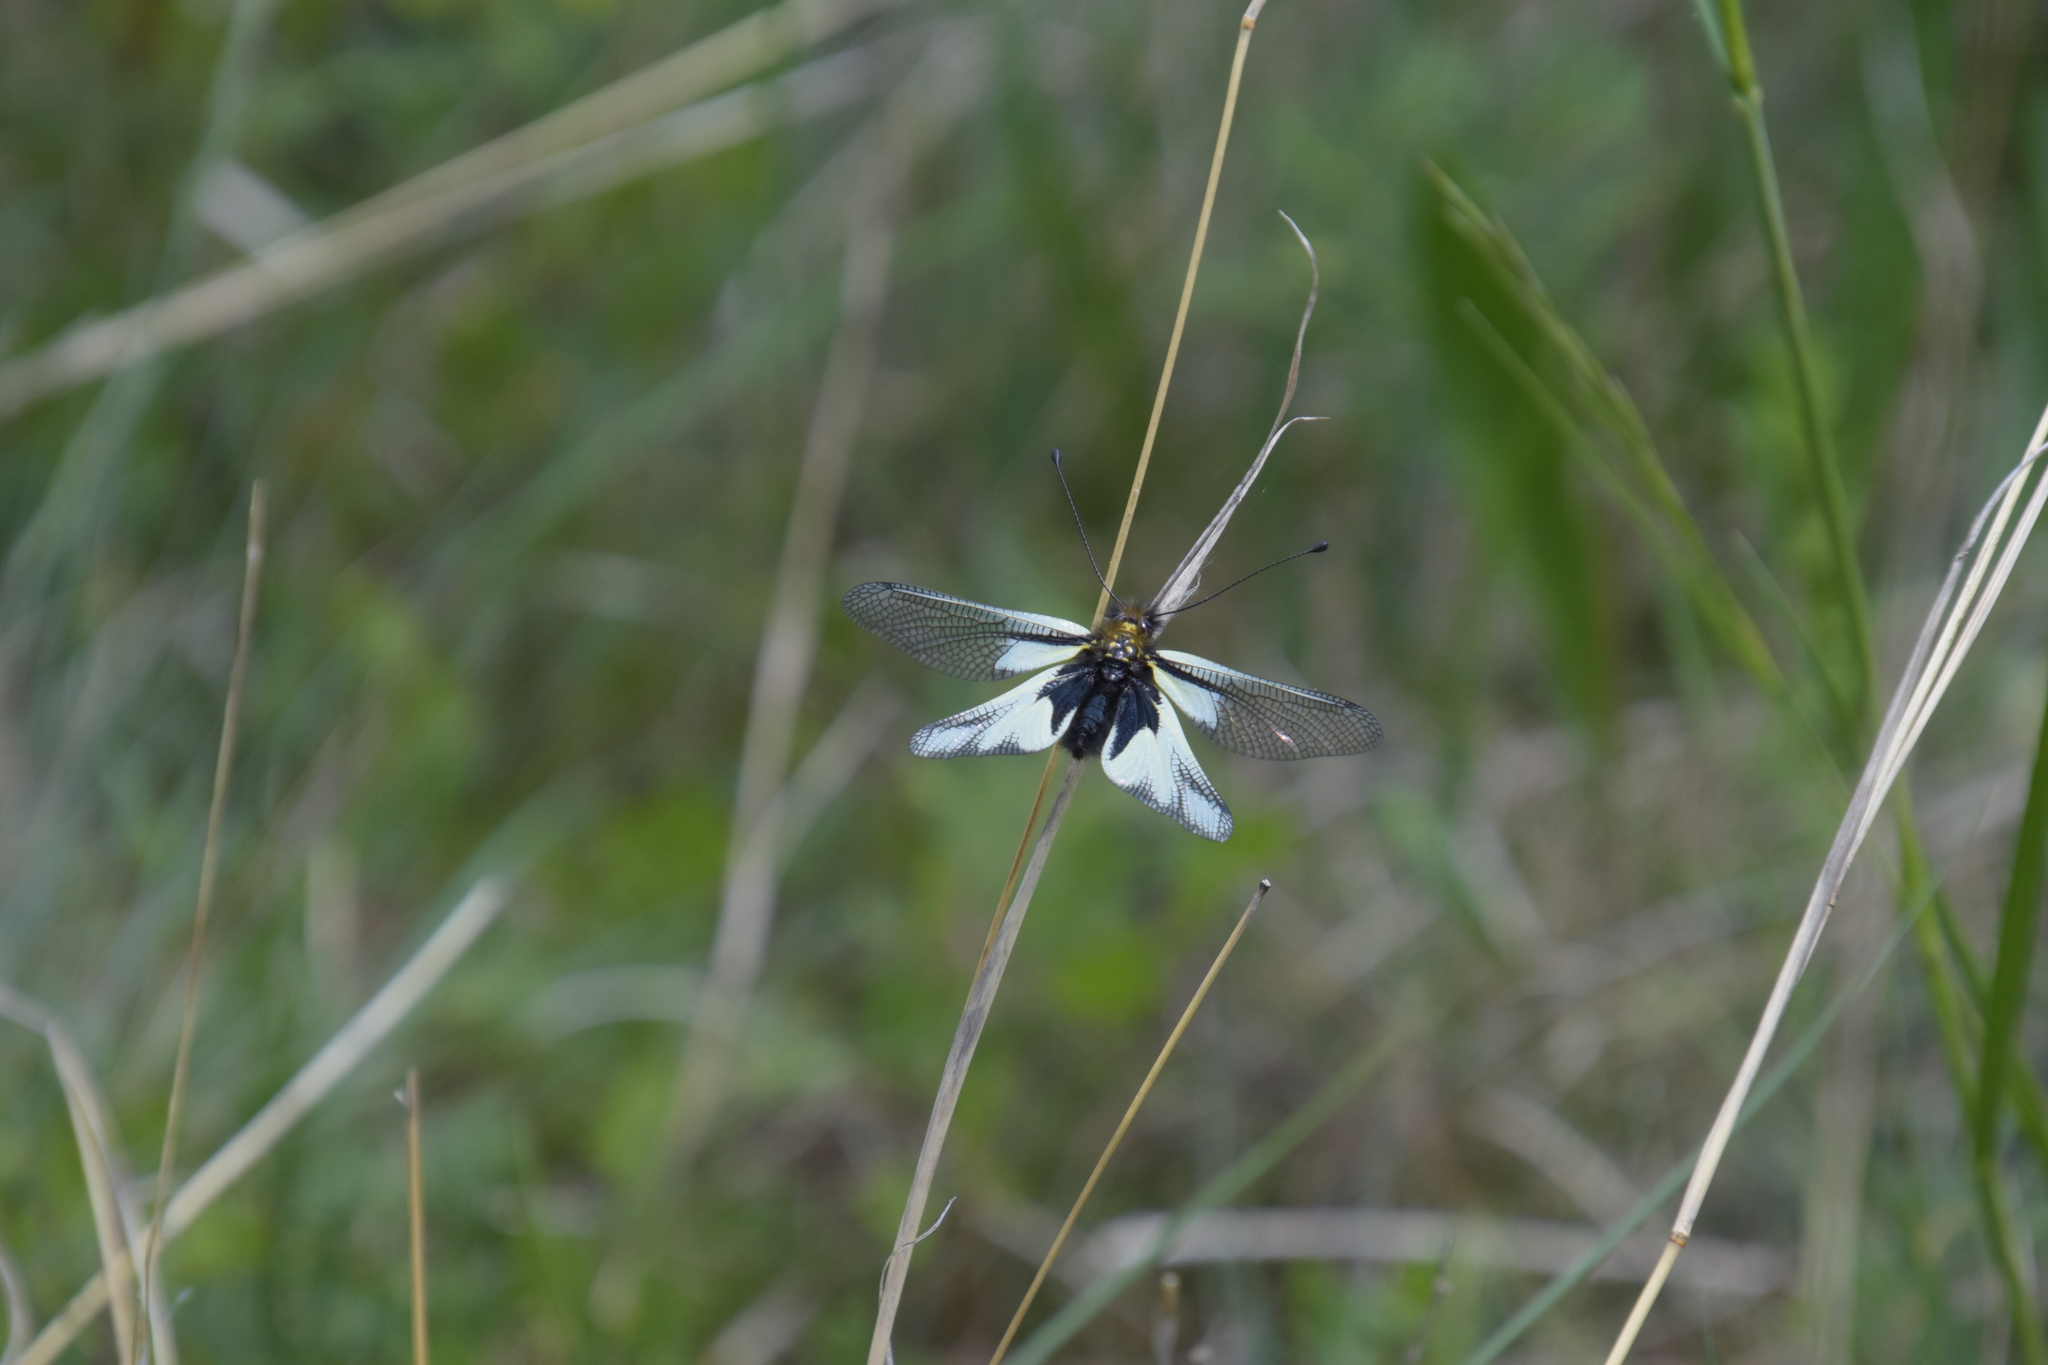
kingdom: Animalia
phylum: Arthropoda
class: Insecta
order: Neuroptera
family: Ascalaphidae
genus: Libelloides
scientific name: Libelloides coccajus
